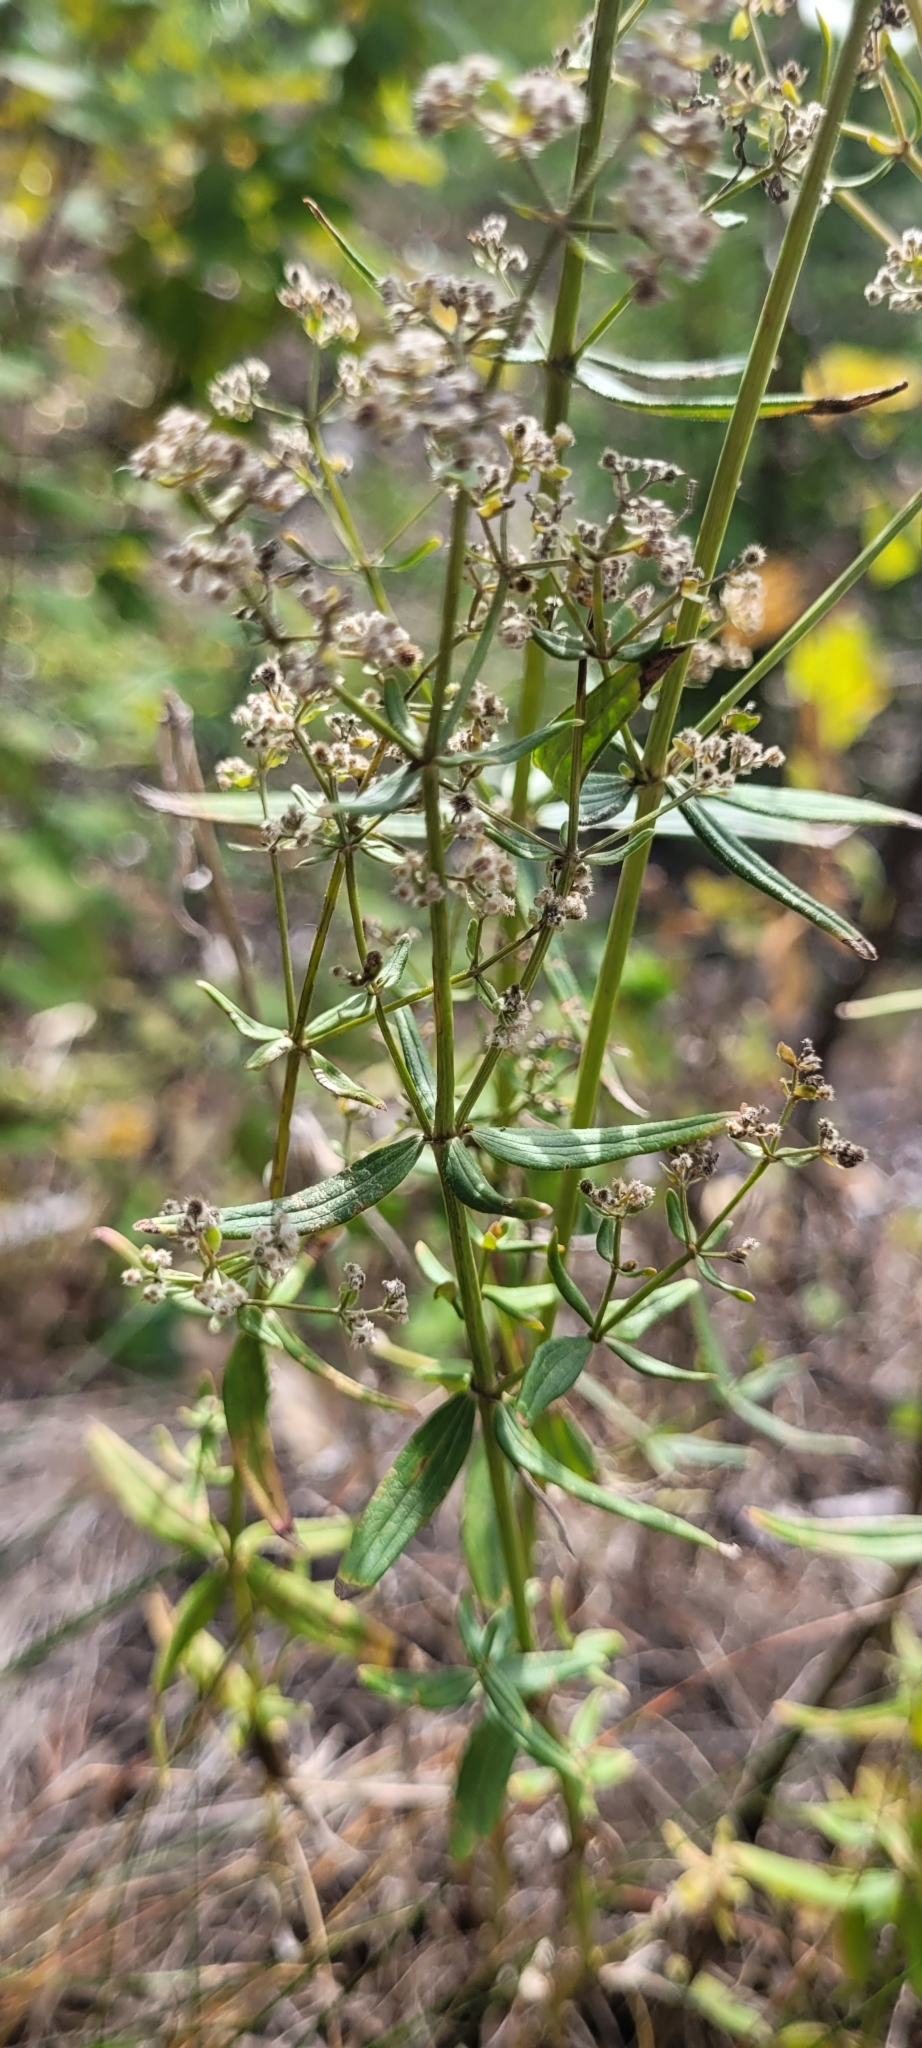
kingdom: Plantae
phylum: Tracheophyta
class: Magnoliopsida
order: Gentianales
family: Rubiaceae
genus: Galium
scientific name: Galium boreale
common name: Northern bedstraw
